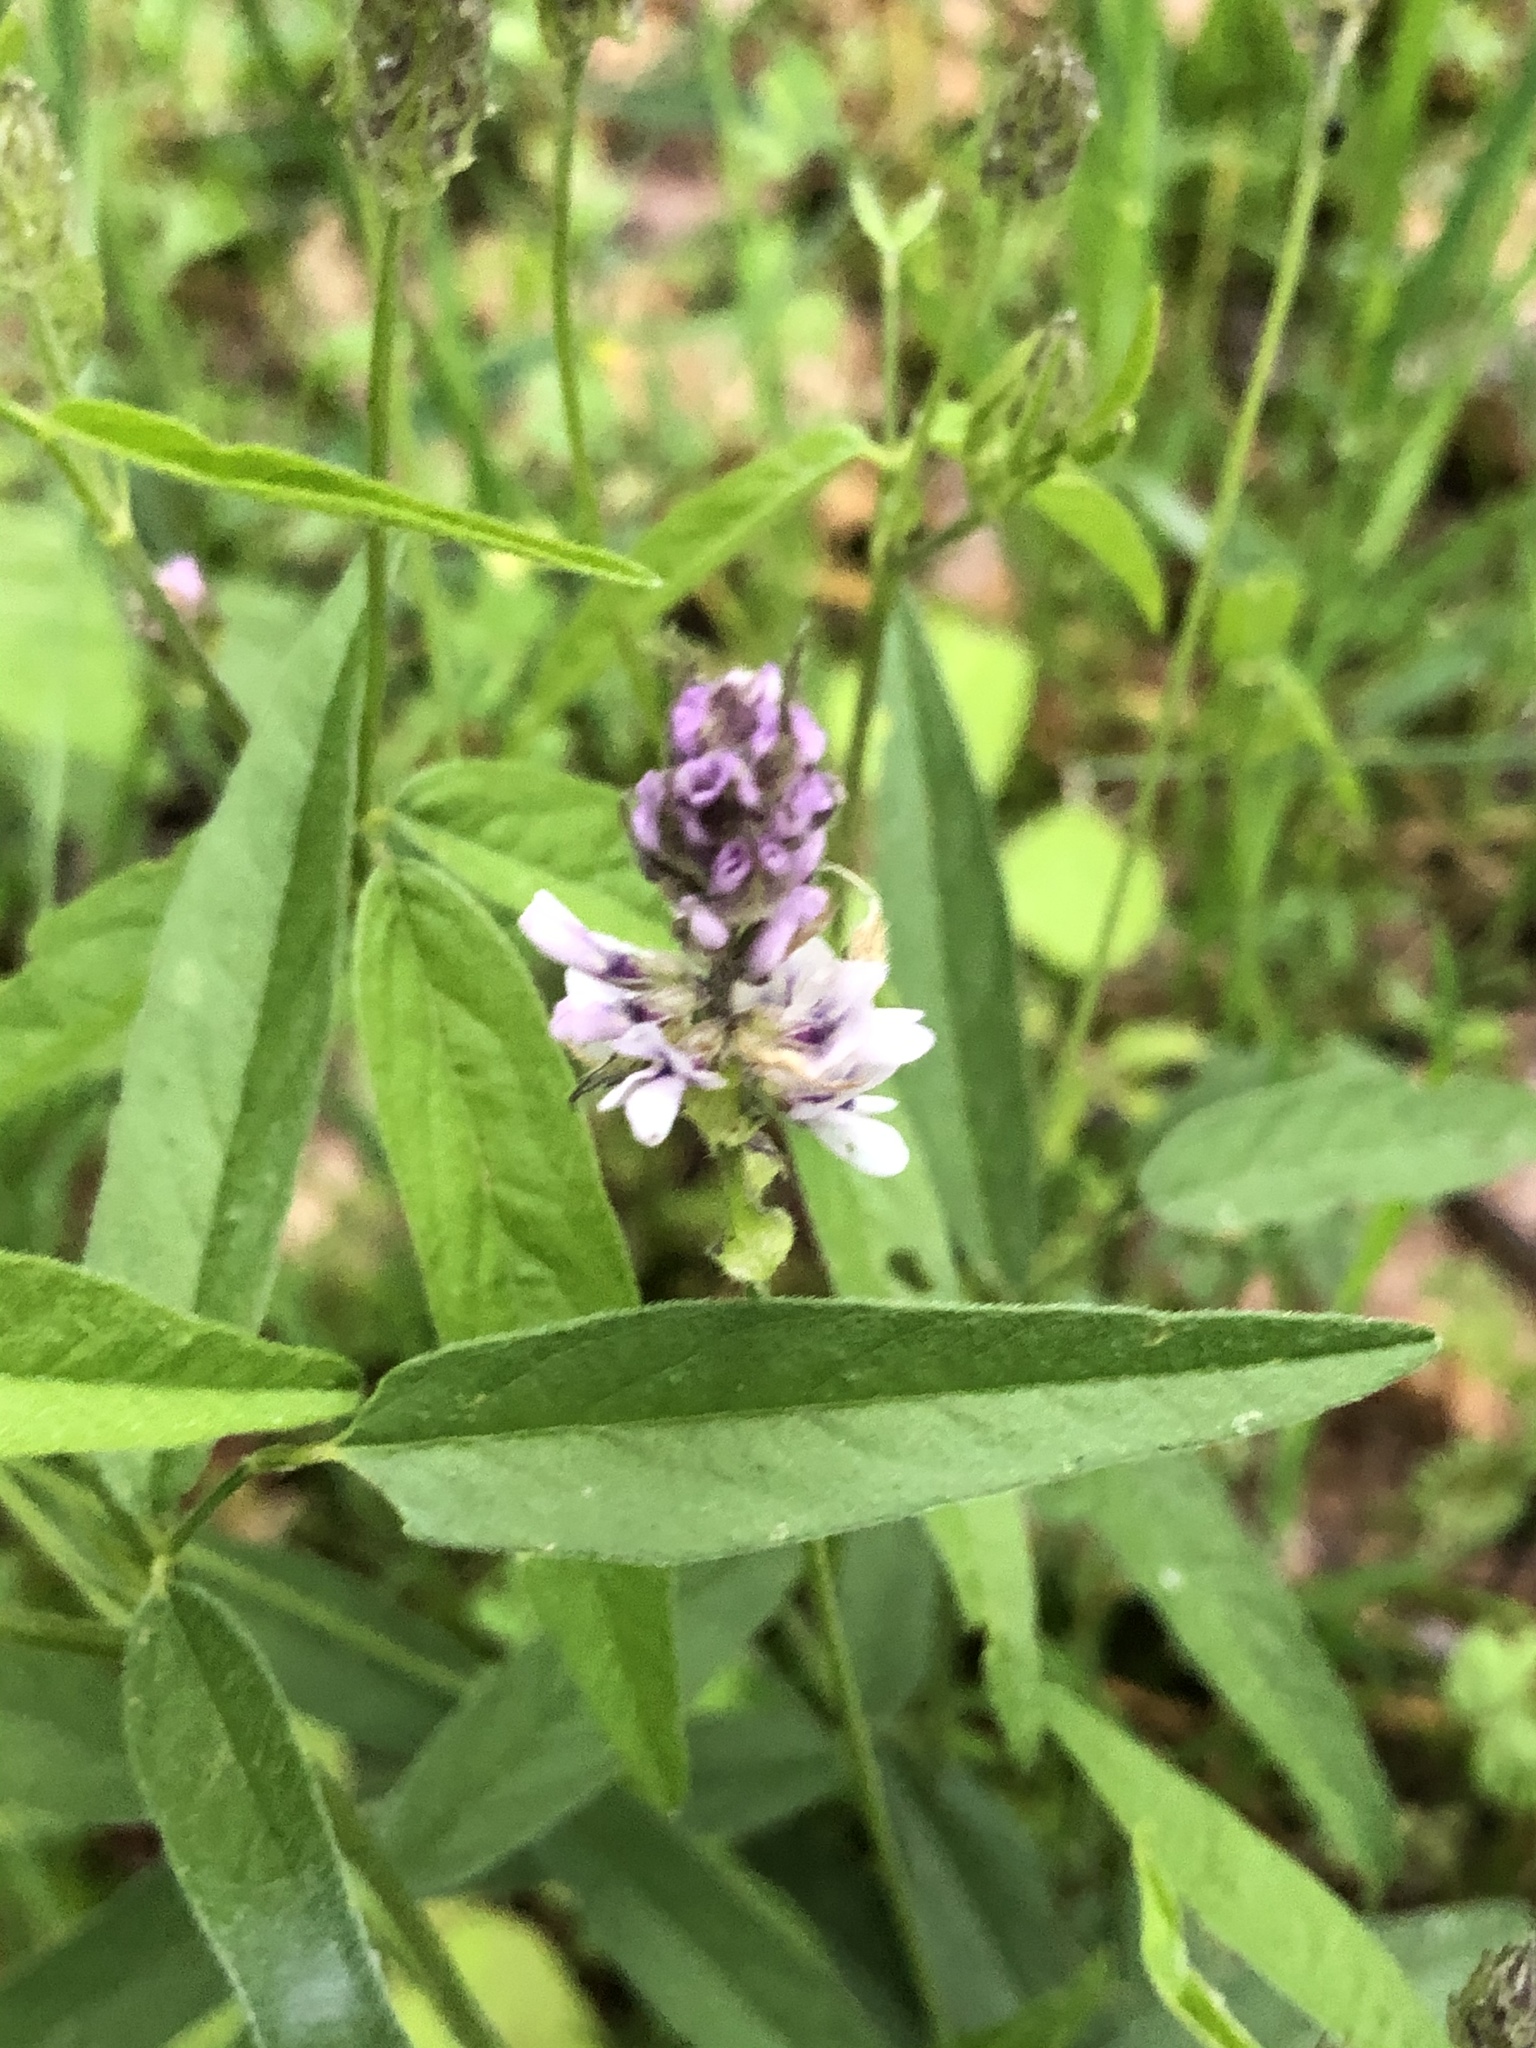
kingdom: Plantae
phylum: Tracheophyta
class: Magnoliopsida
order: Fabales
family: Fabaceae
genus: Orbexilum
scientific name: Orbexilum pedunculatum
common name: Sampson's snakeroot
